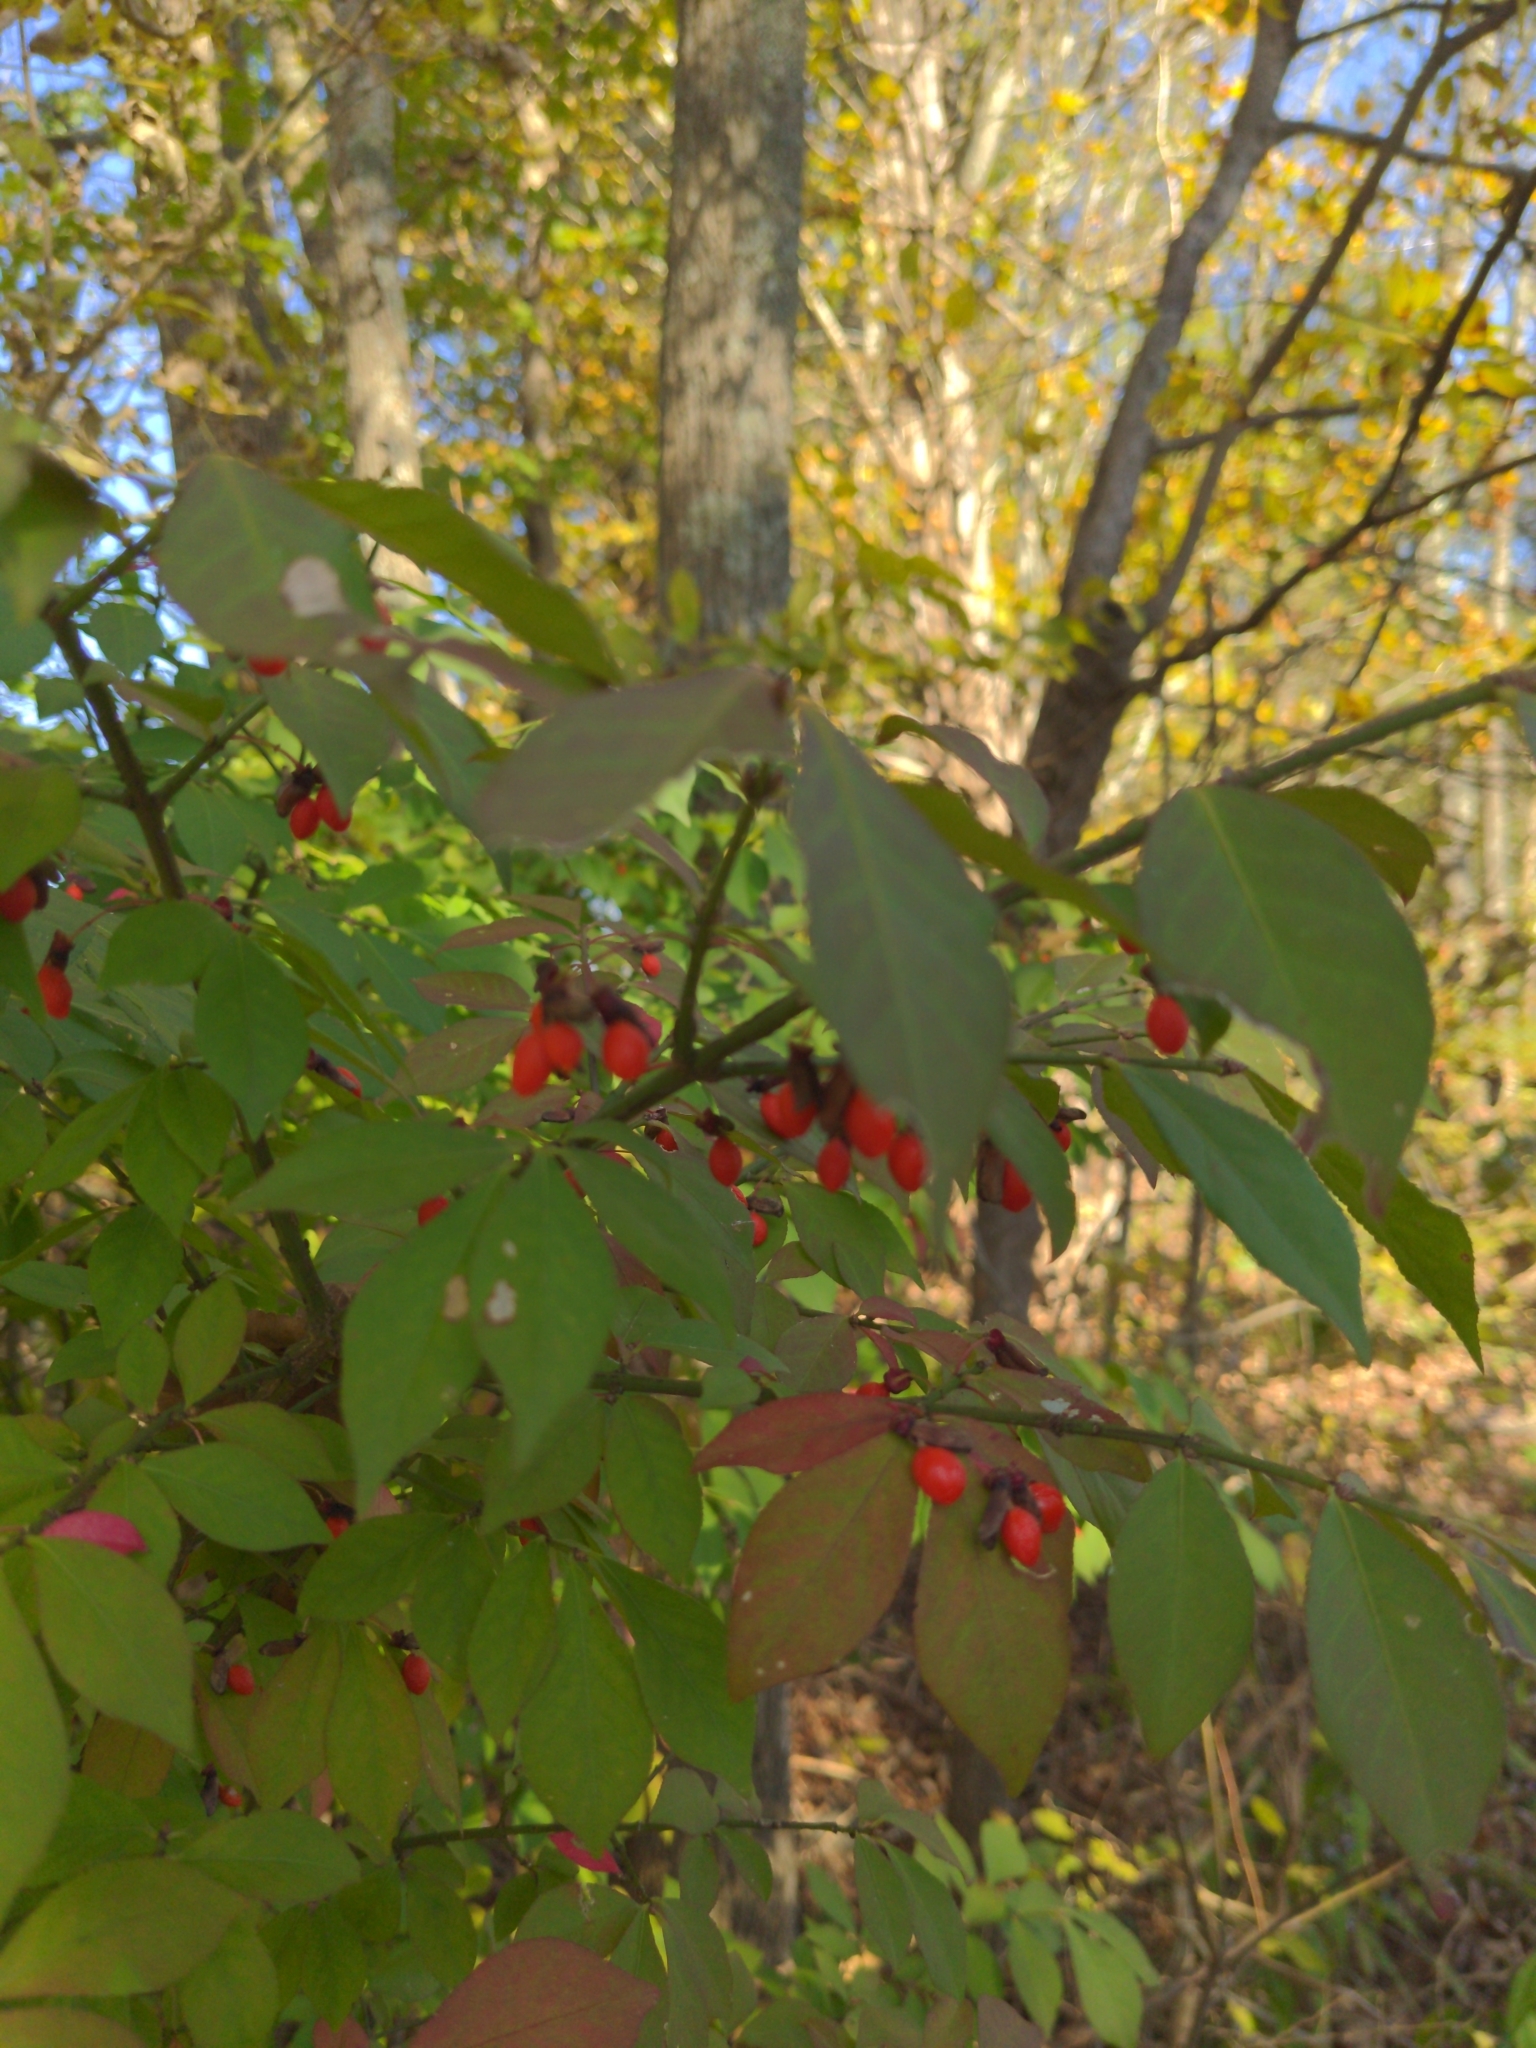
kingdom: Plantae
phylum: Tracheophyta
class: Magnoliopsida
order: Celastrales
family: Celastraceae
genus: Euonymus
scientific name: Euonymus alatus
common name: Winged euonymus
